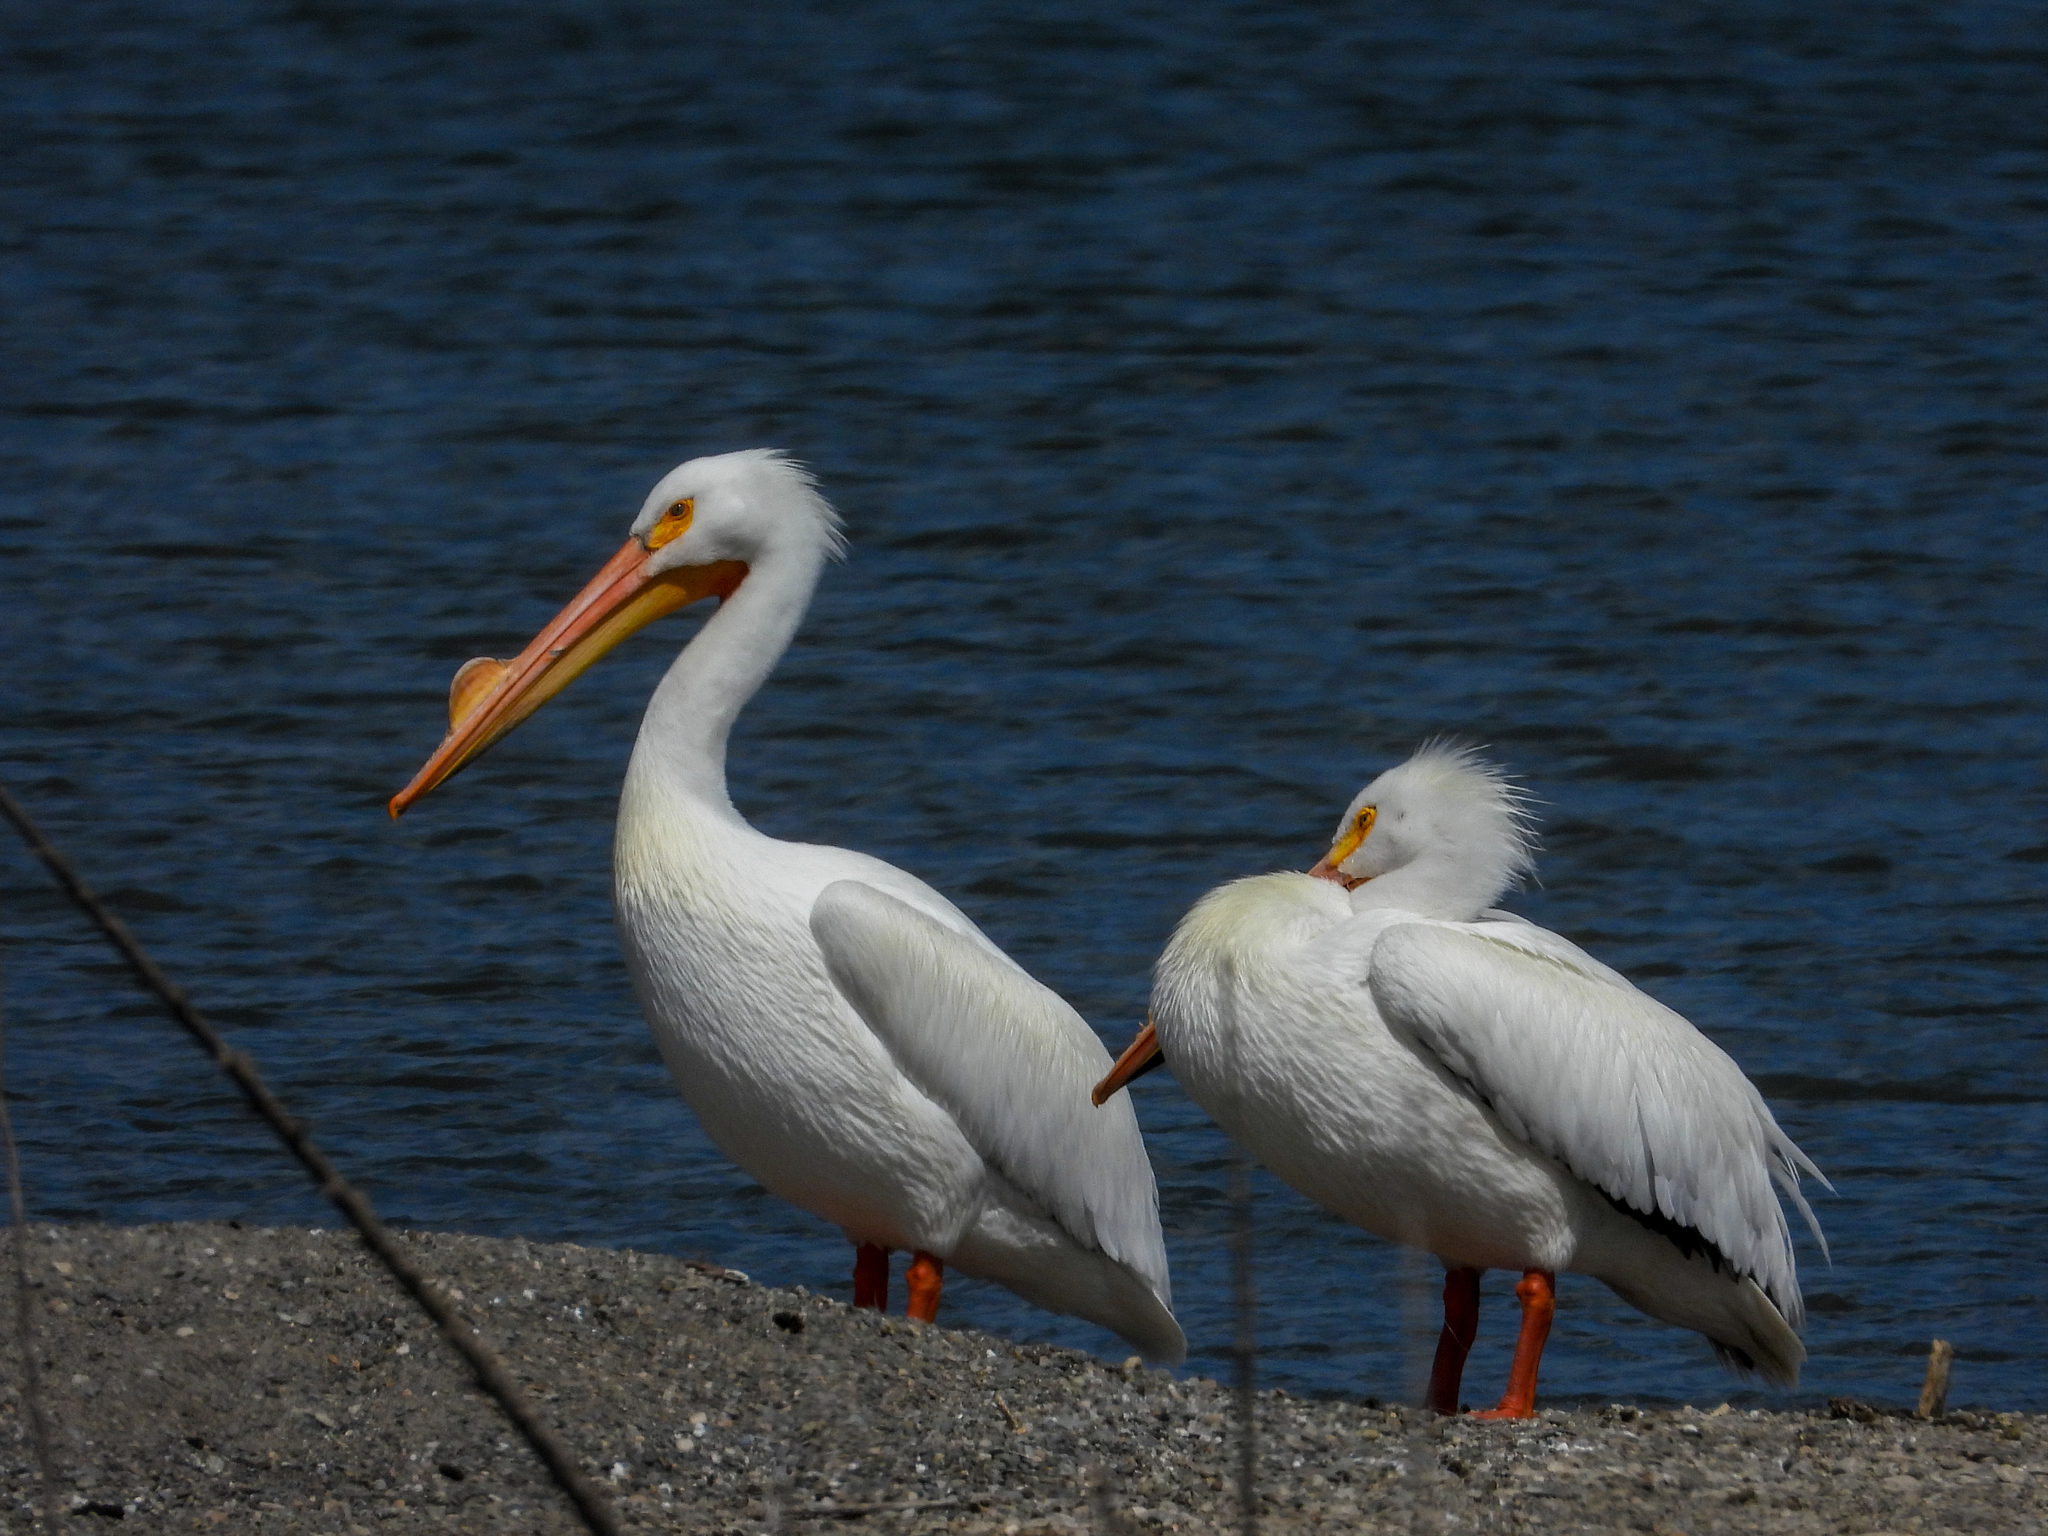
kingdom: Animalia
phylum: Chordata
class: Aves
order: Pelecaniformes
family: Pelecanidae
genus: Pelecanus
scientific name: Pelecanus erythrorhynchos
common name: American white pelican
